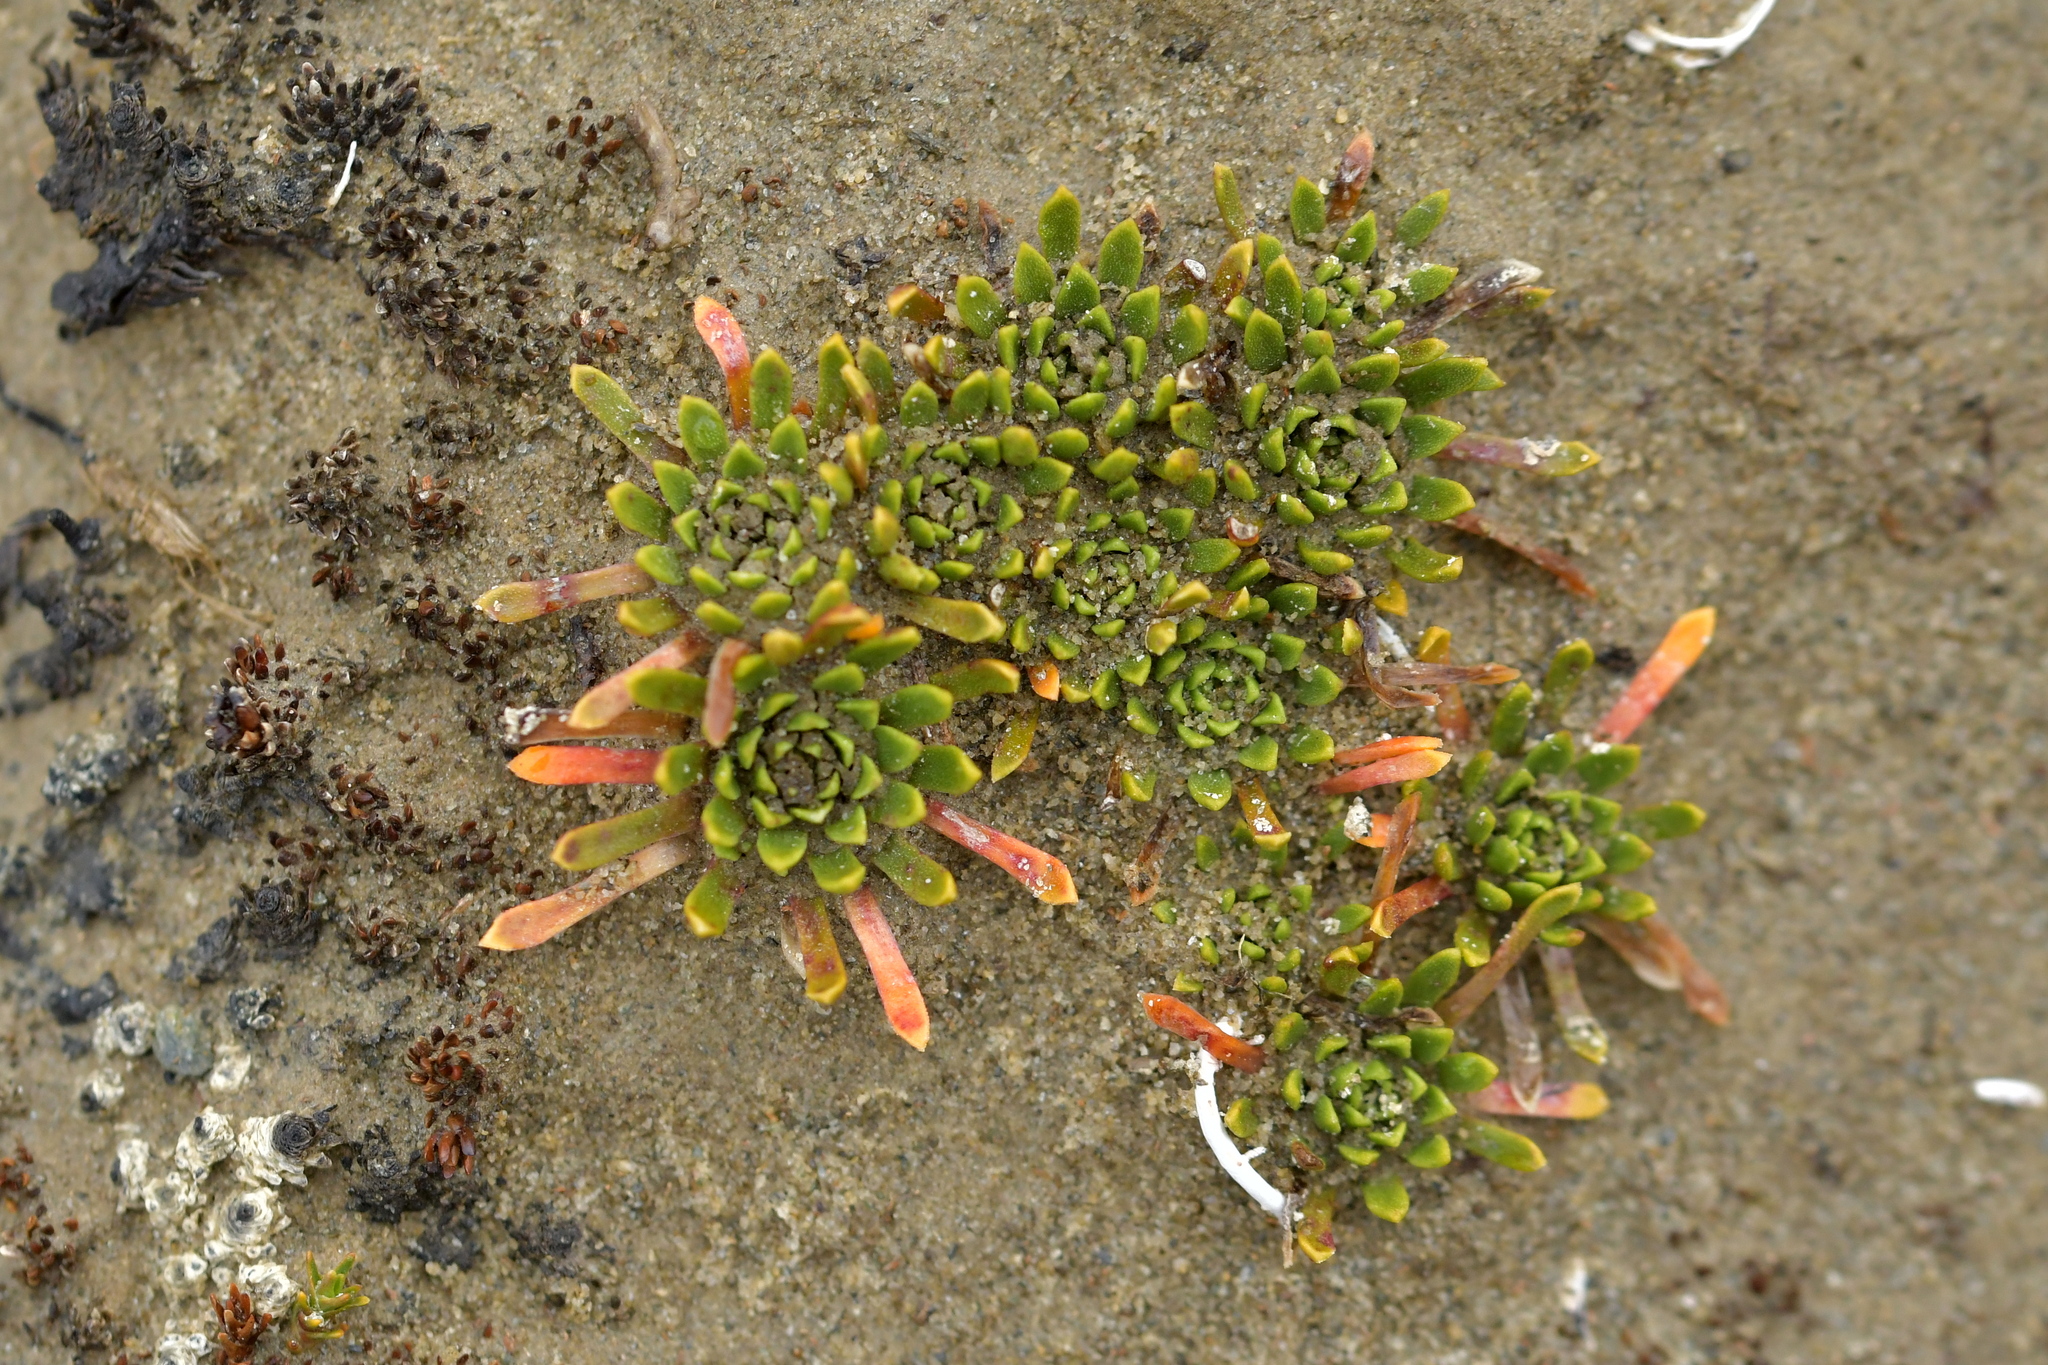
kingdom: Plantae
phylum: Tracheophyta
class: Magnoliopsida
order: Caryophyllales
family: Montiaceae
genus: Hectorella
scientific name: Hectorella caespitosa
